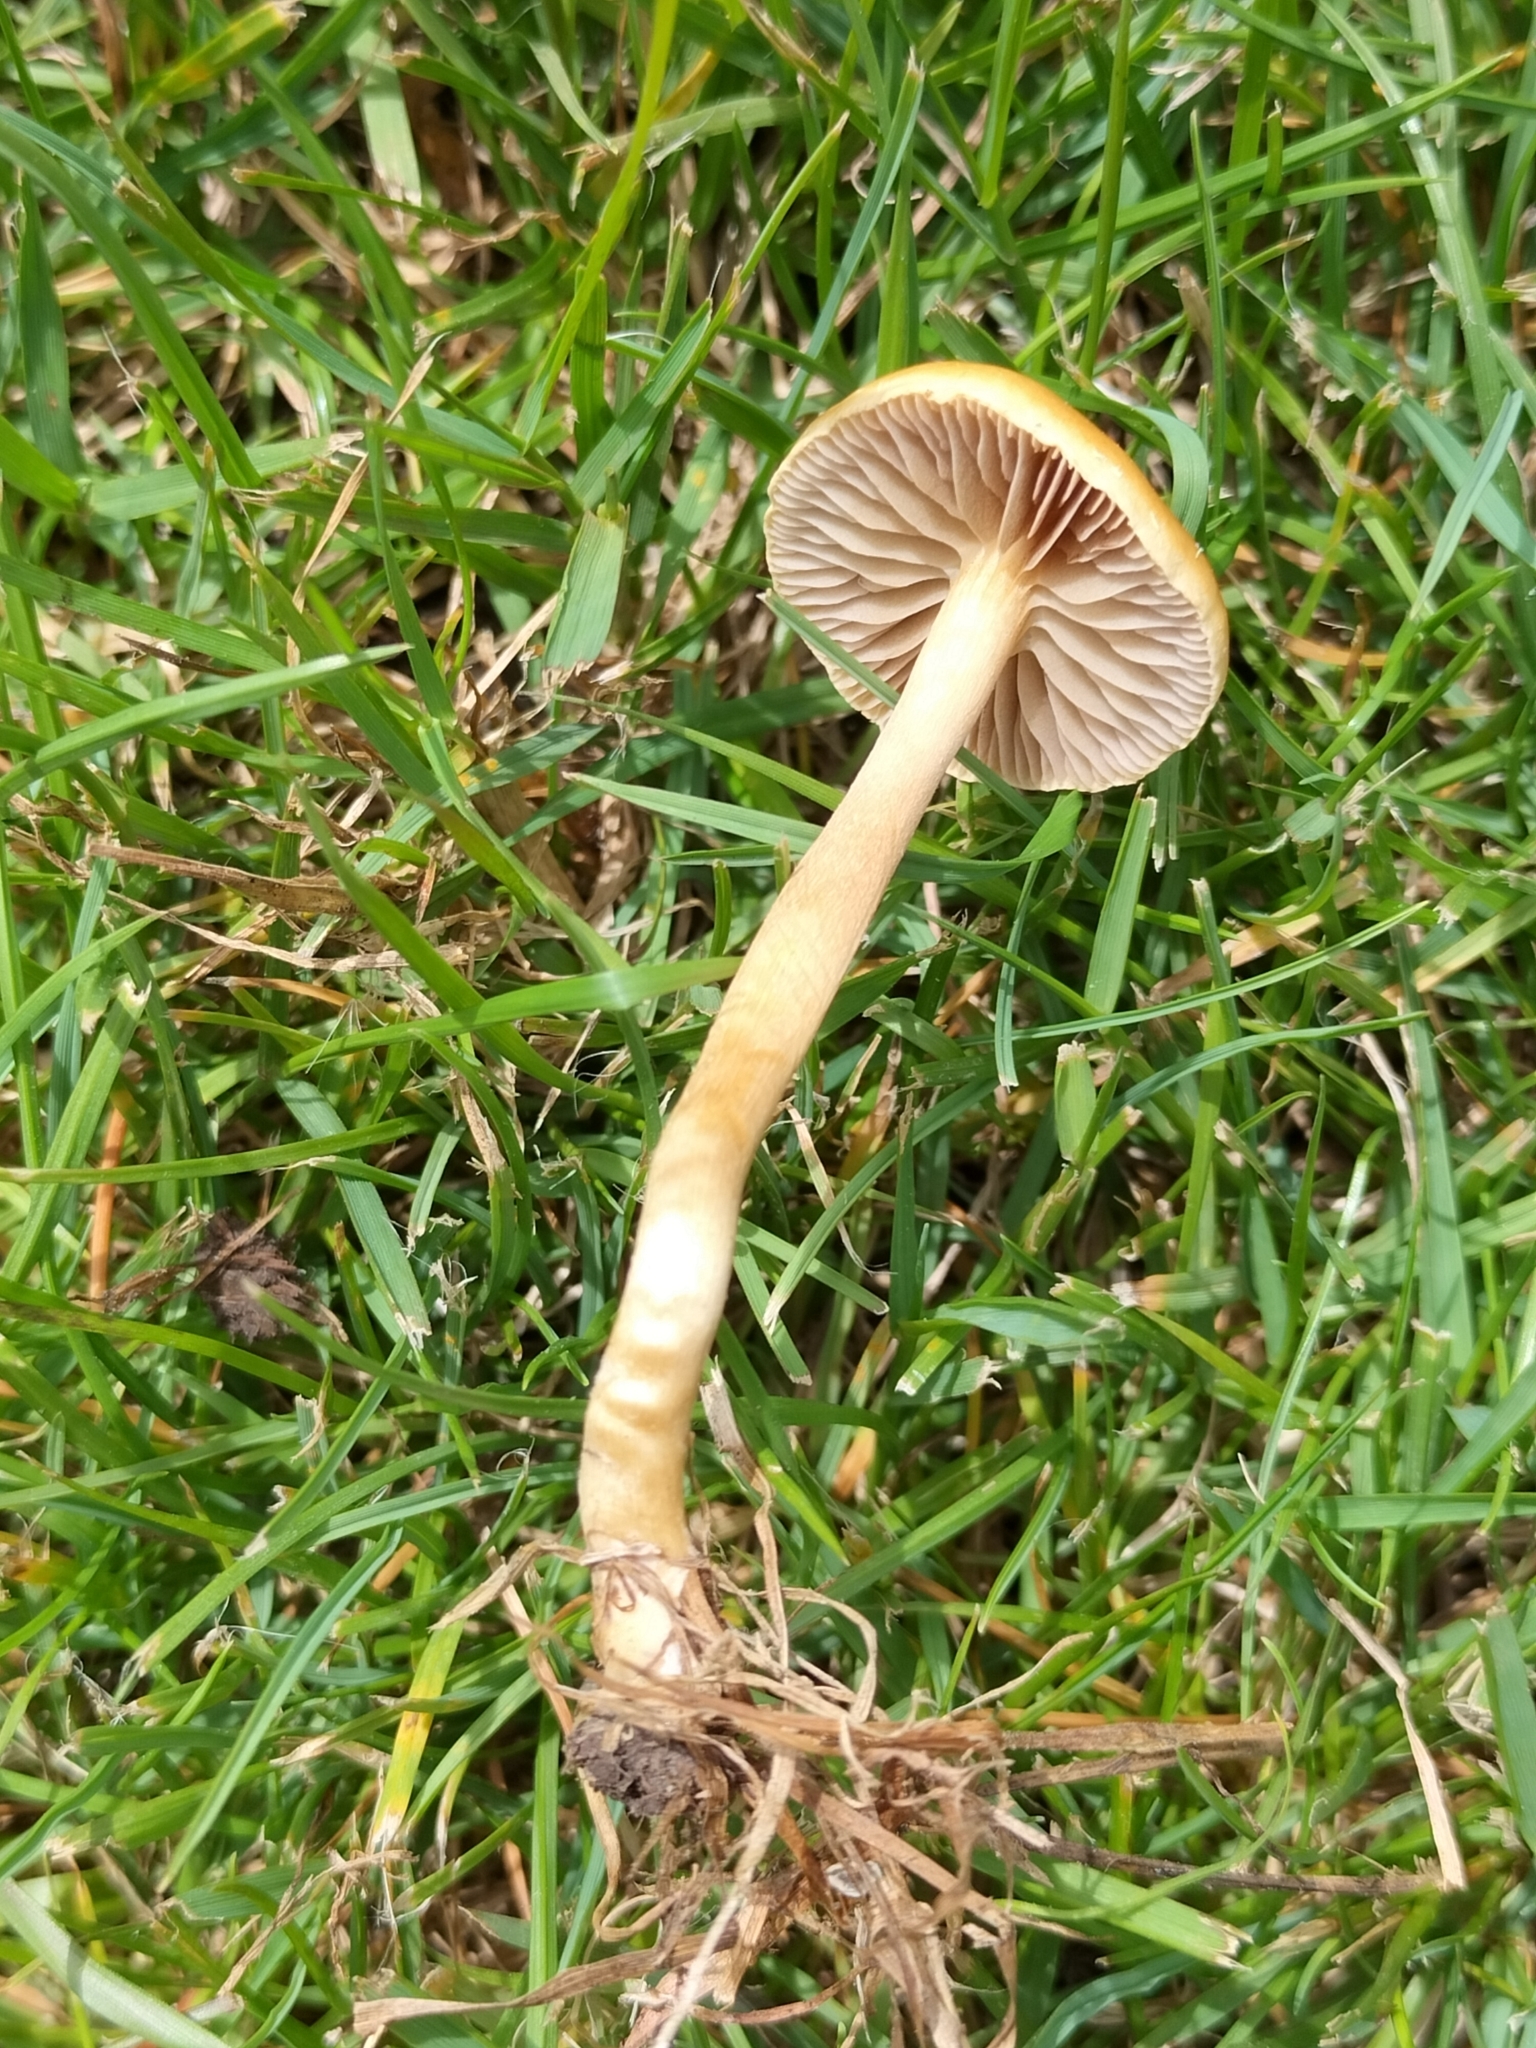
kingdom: Fungi
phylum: Basidiomycota
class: Agaricomycetes
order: Agaricales
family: Strophariaceae
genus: Agrocybe
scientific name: Agrocybe pediades
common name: Common fieldcap
